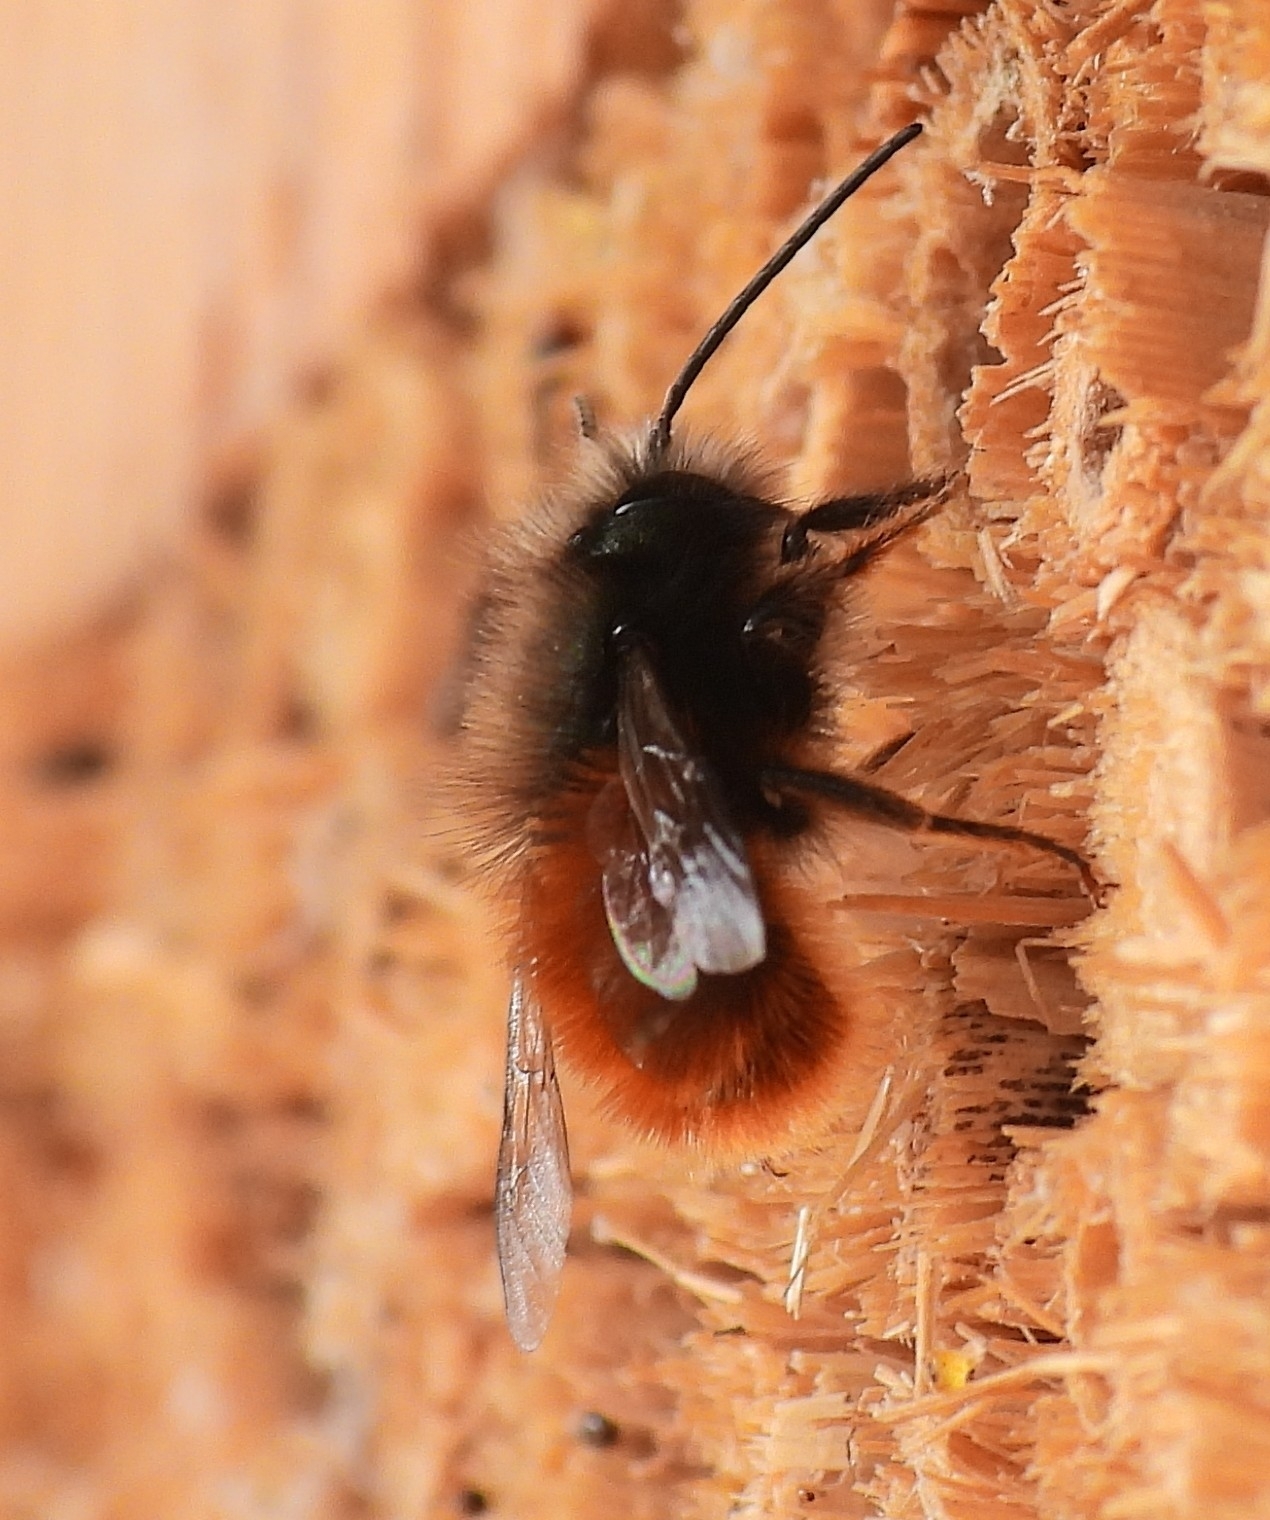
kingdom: Animalia
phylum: Arthropoda
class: Insecta
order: Hymenoptera
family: Megachilidae
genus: Osmia
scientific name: Osmia cornuta
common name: Mason bee
